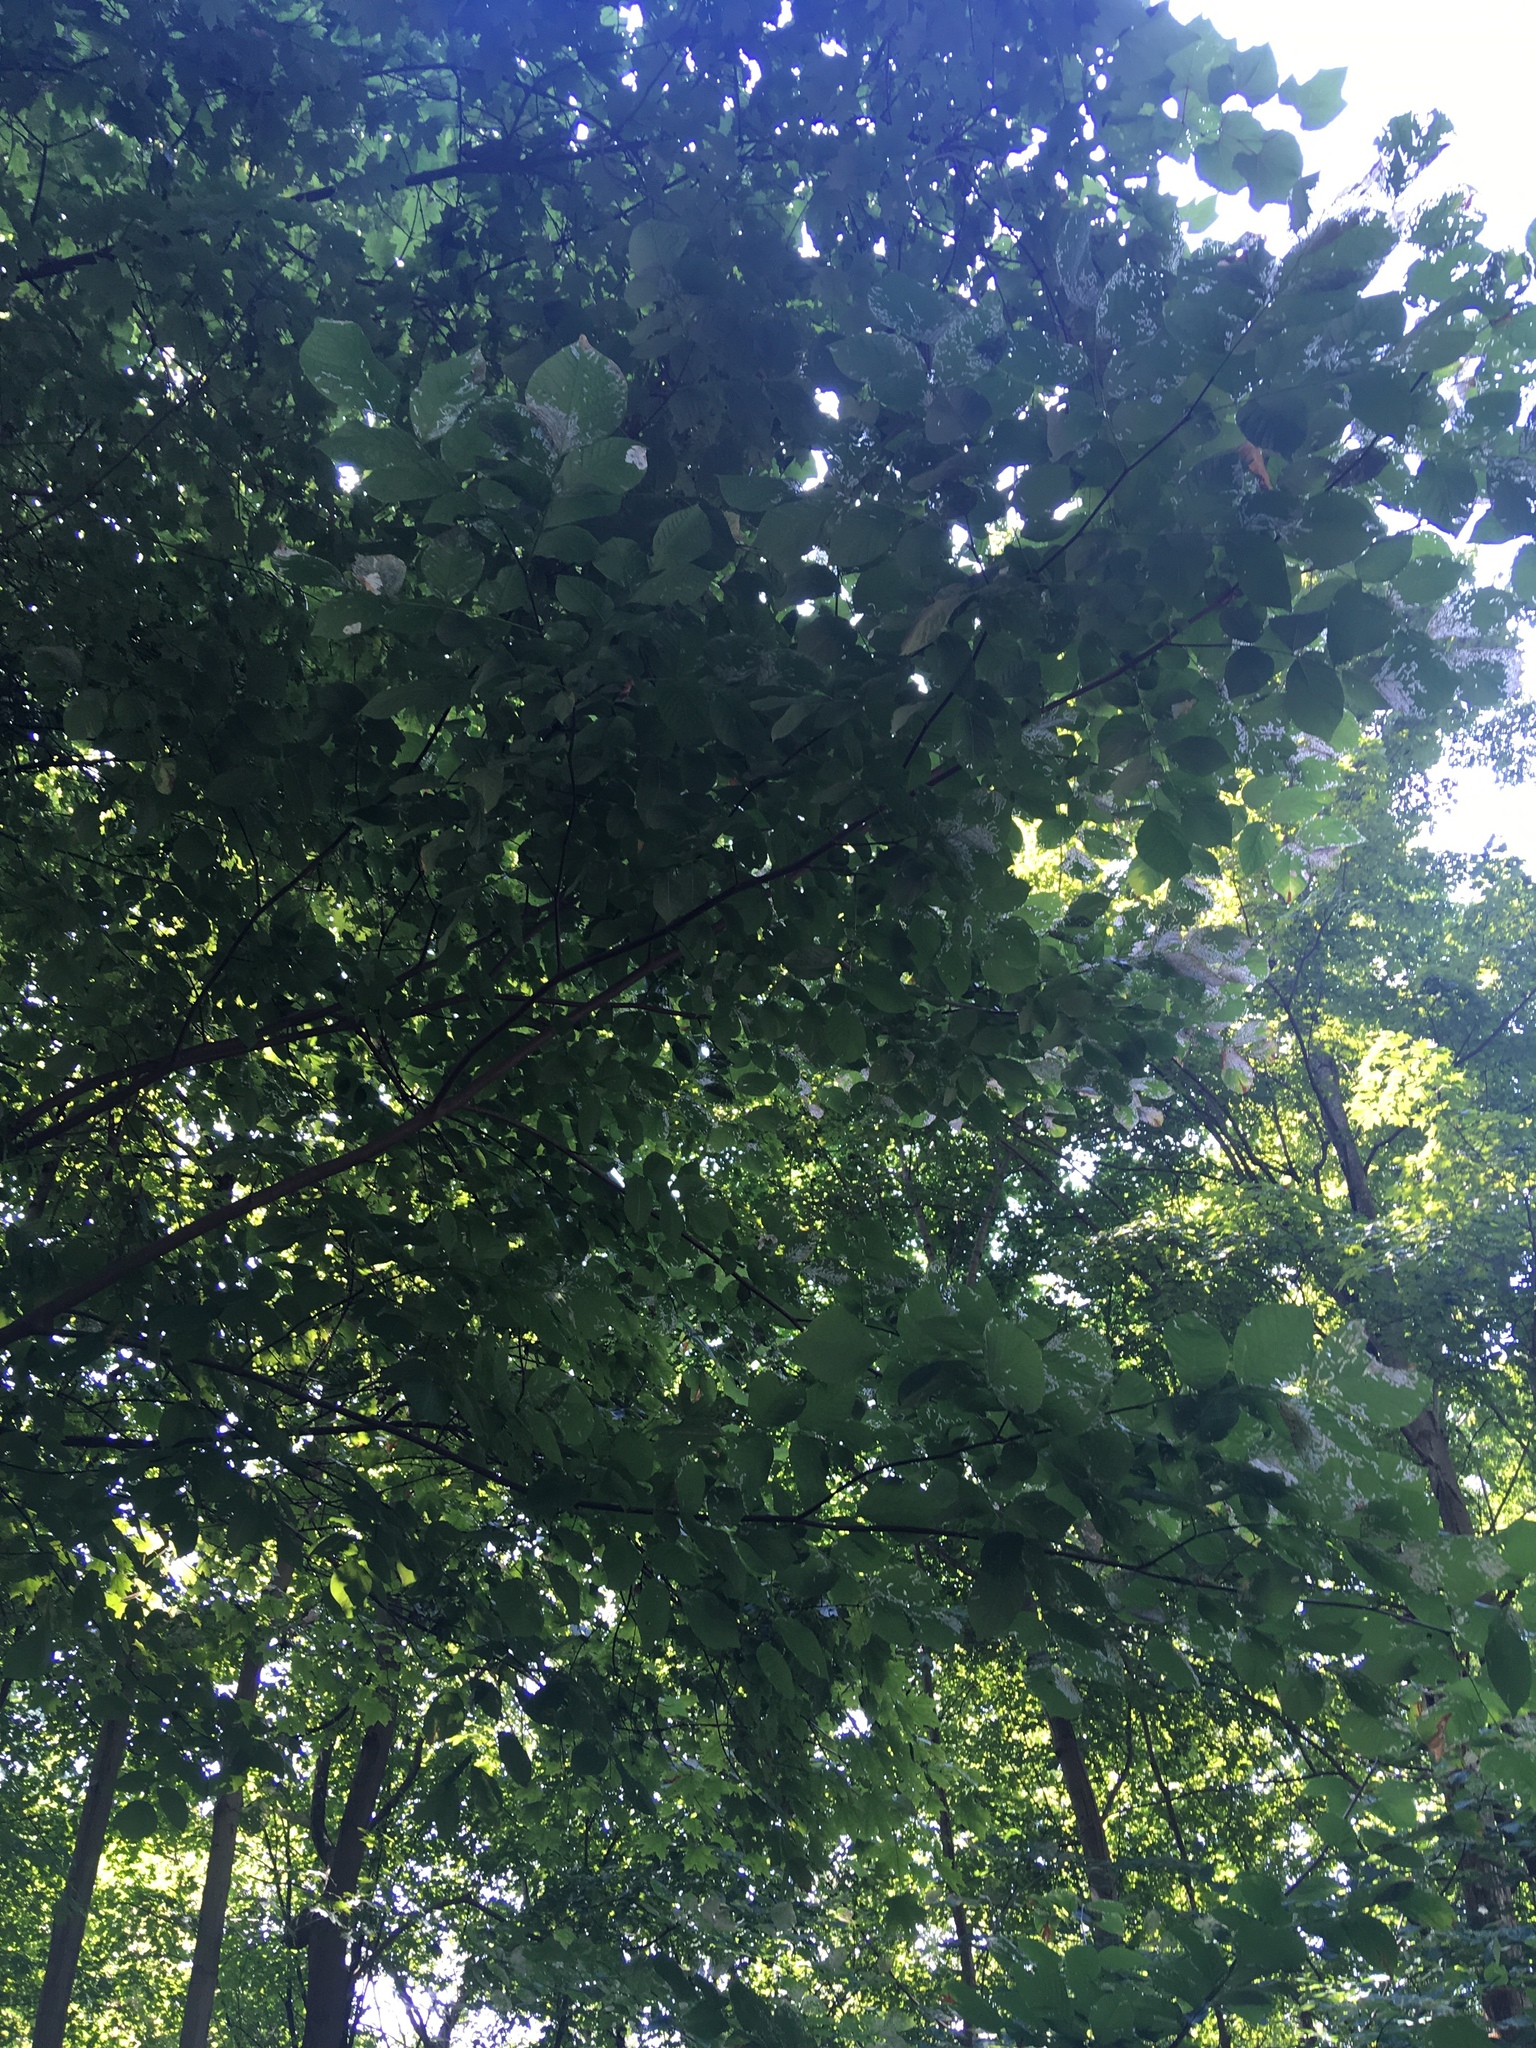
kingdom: Plantae
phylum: Tracheophyta
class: Magnoliopsida
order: Fabales
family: Fabaceae
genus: Cladrastis
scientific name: Cladrastis kentukea
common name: Kentucky yellow-wood
